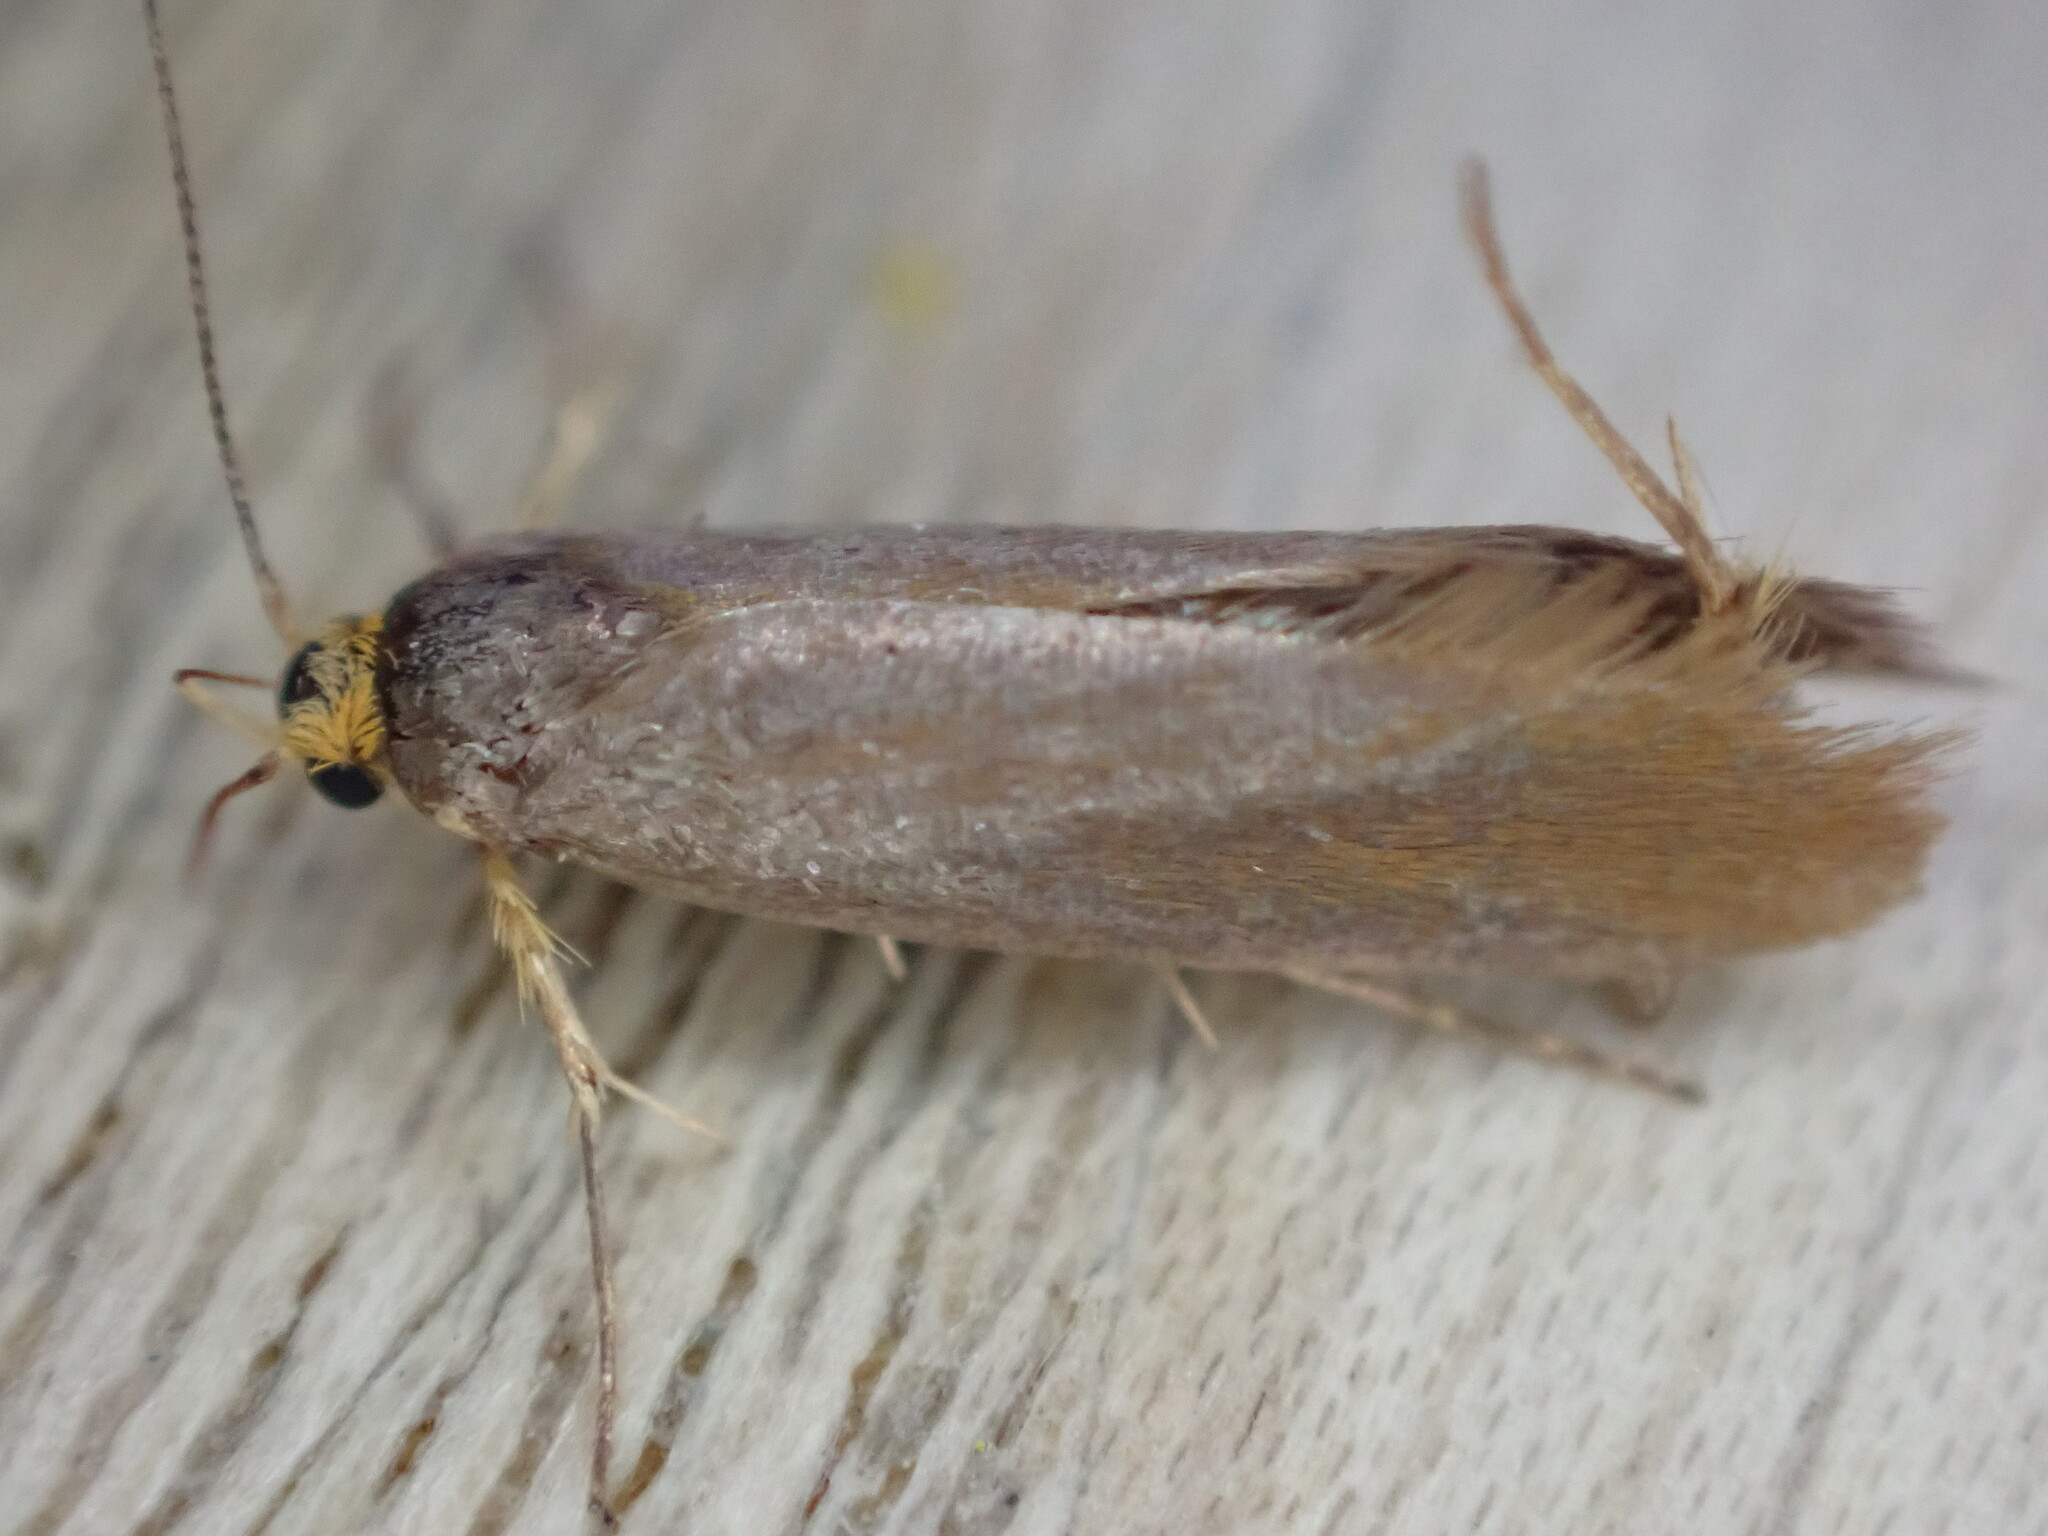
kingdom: Animalia
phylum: Arthropoda
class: Insecta
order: Lepidoptera
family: Oecophoridae
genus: Borkhausenia
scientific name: Borkhausenia Crassa unitella
